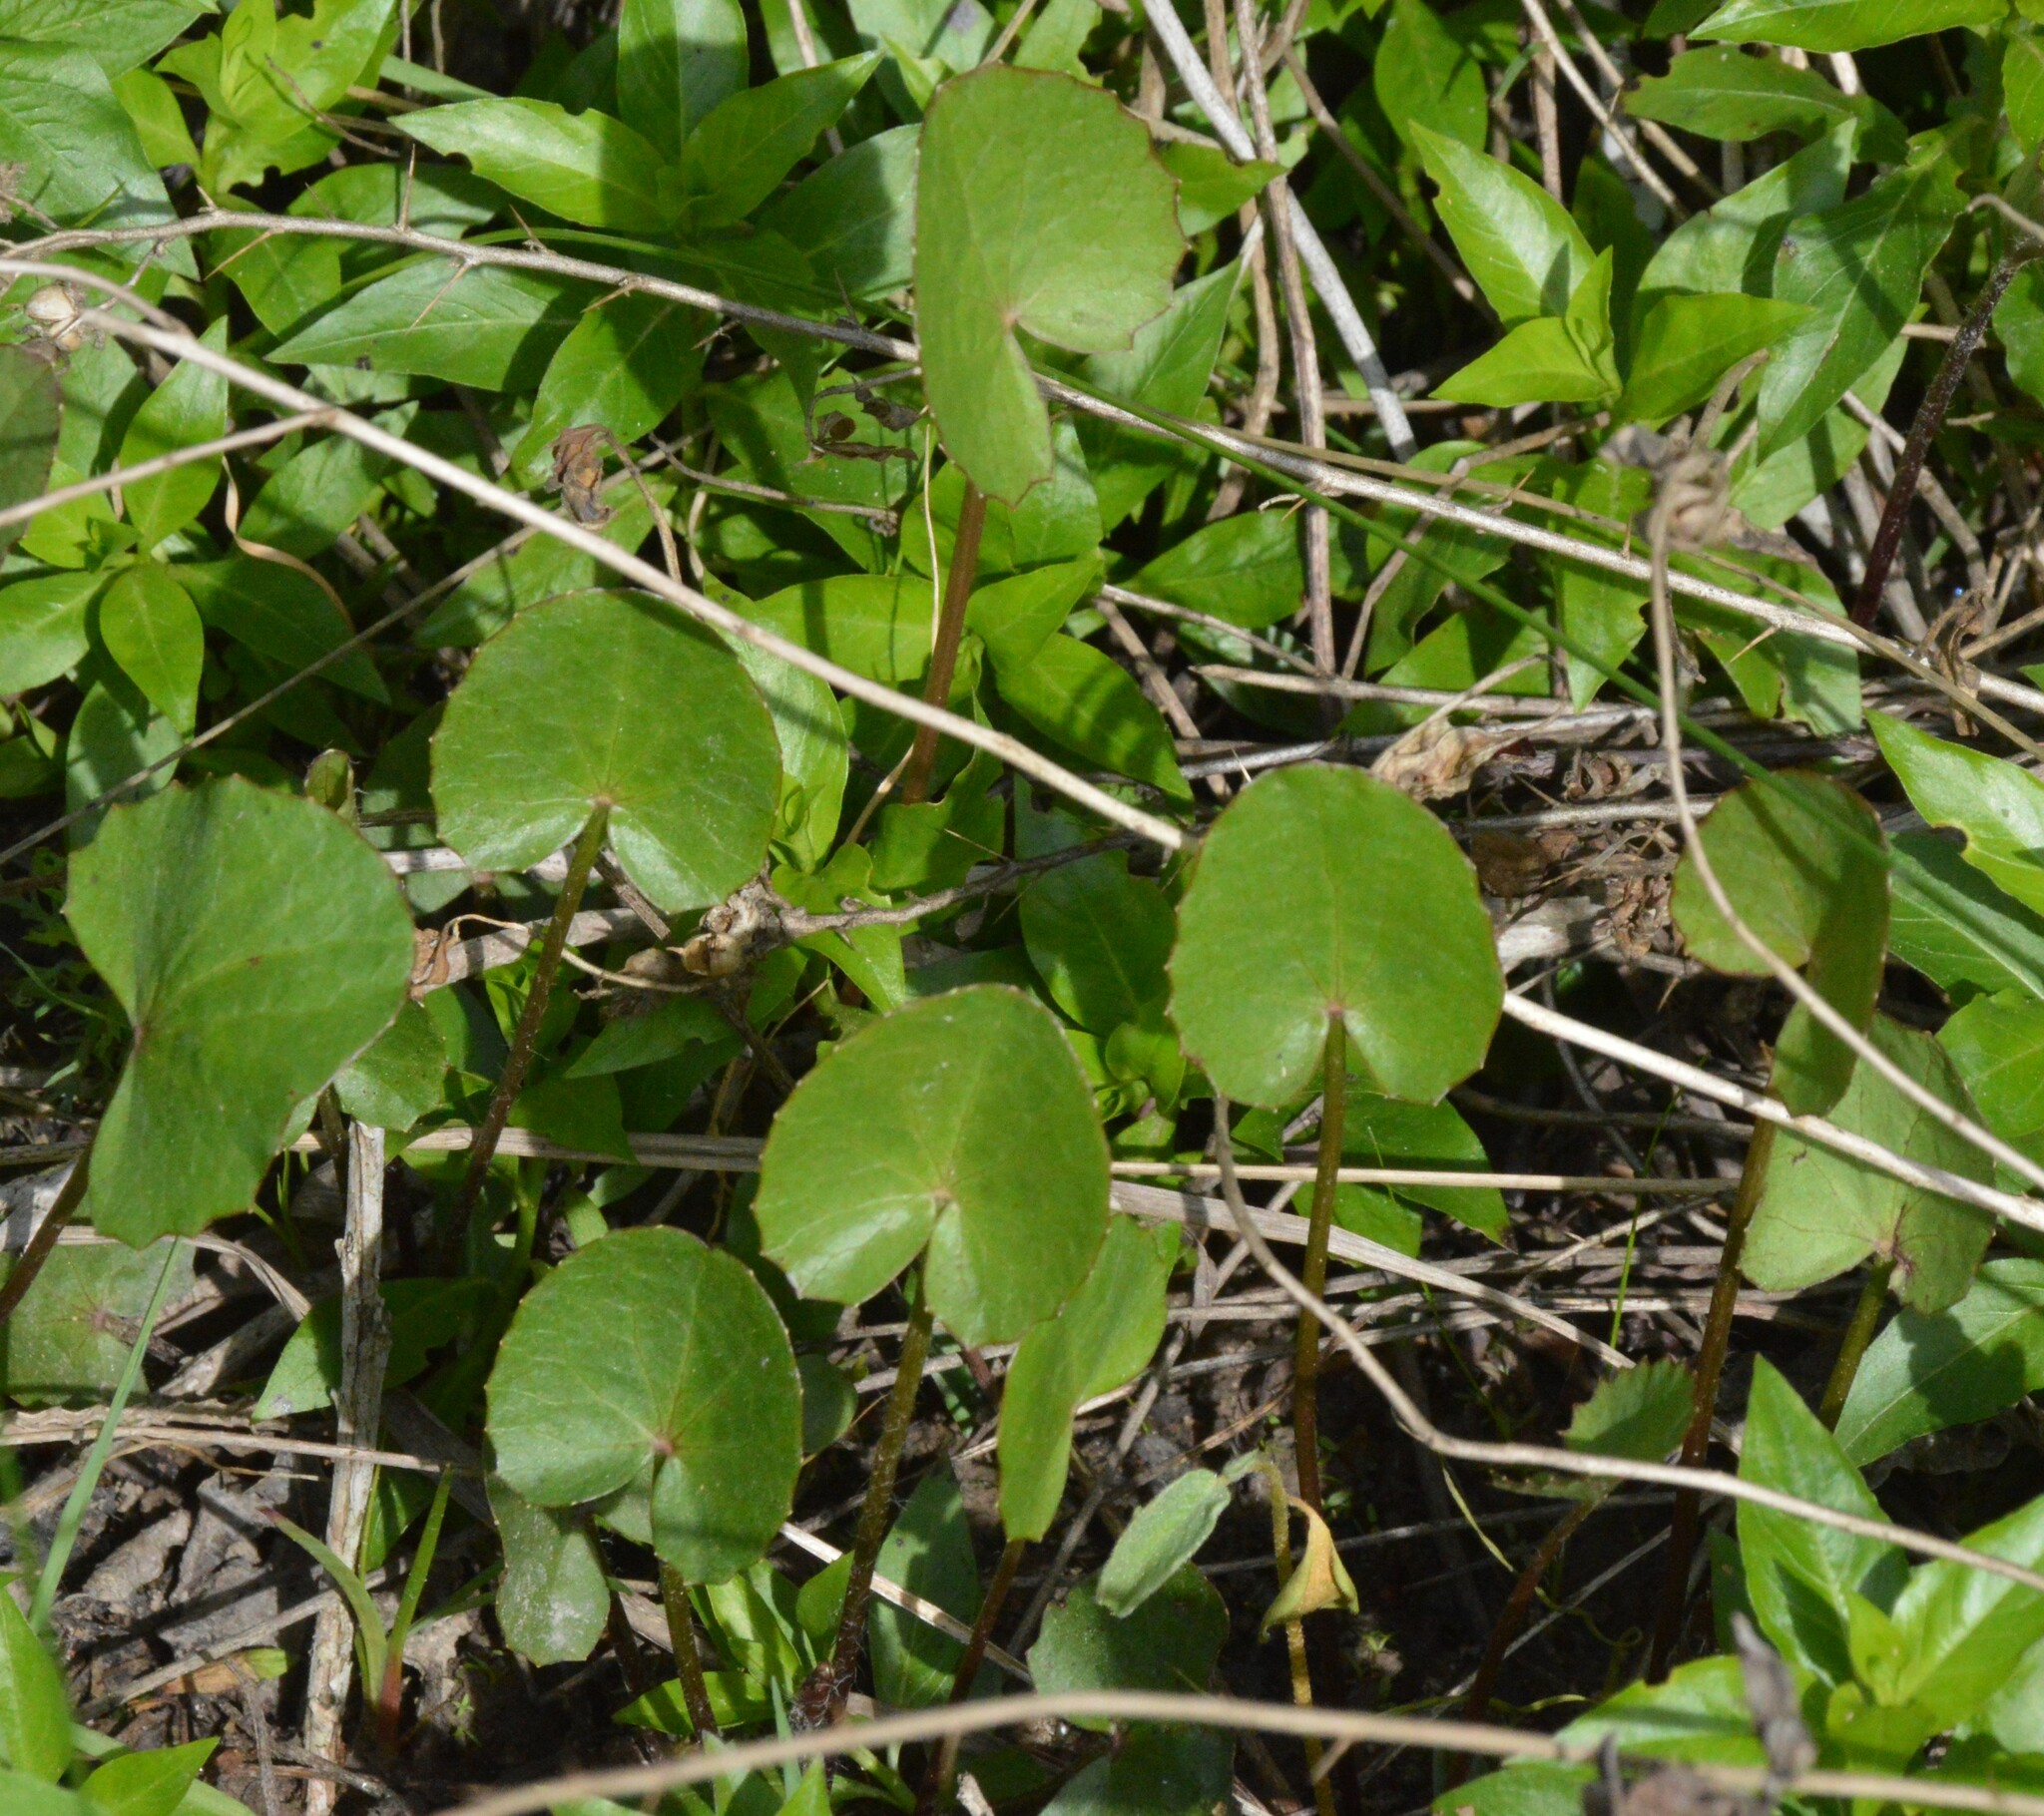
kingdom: Plantae
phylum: Tracheophyta
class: Magnoliopsida
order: Apiales
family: Apiaceae
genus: Centella
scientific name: Centella erecta
